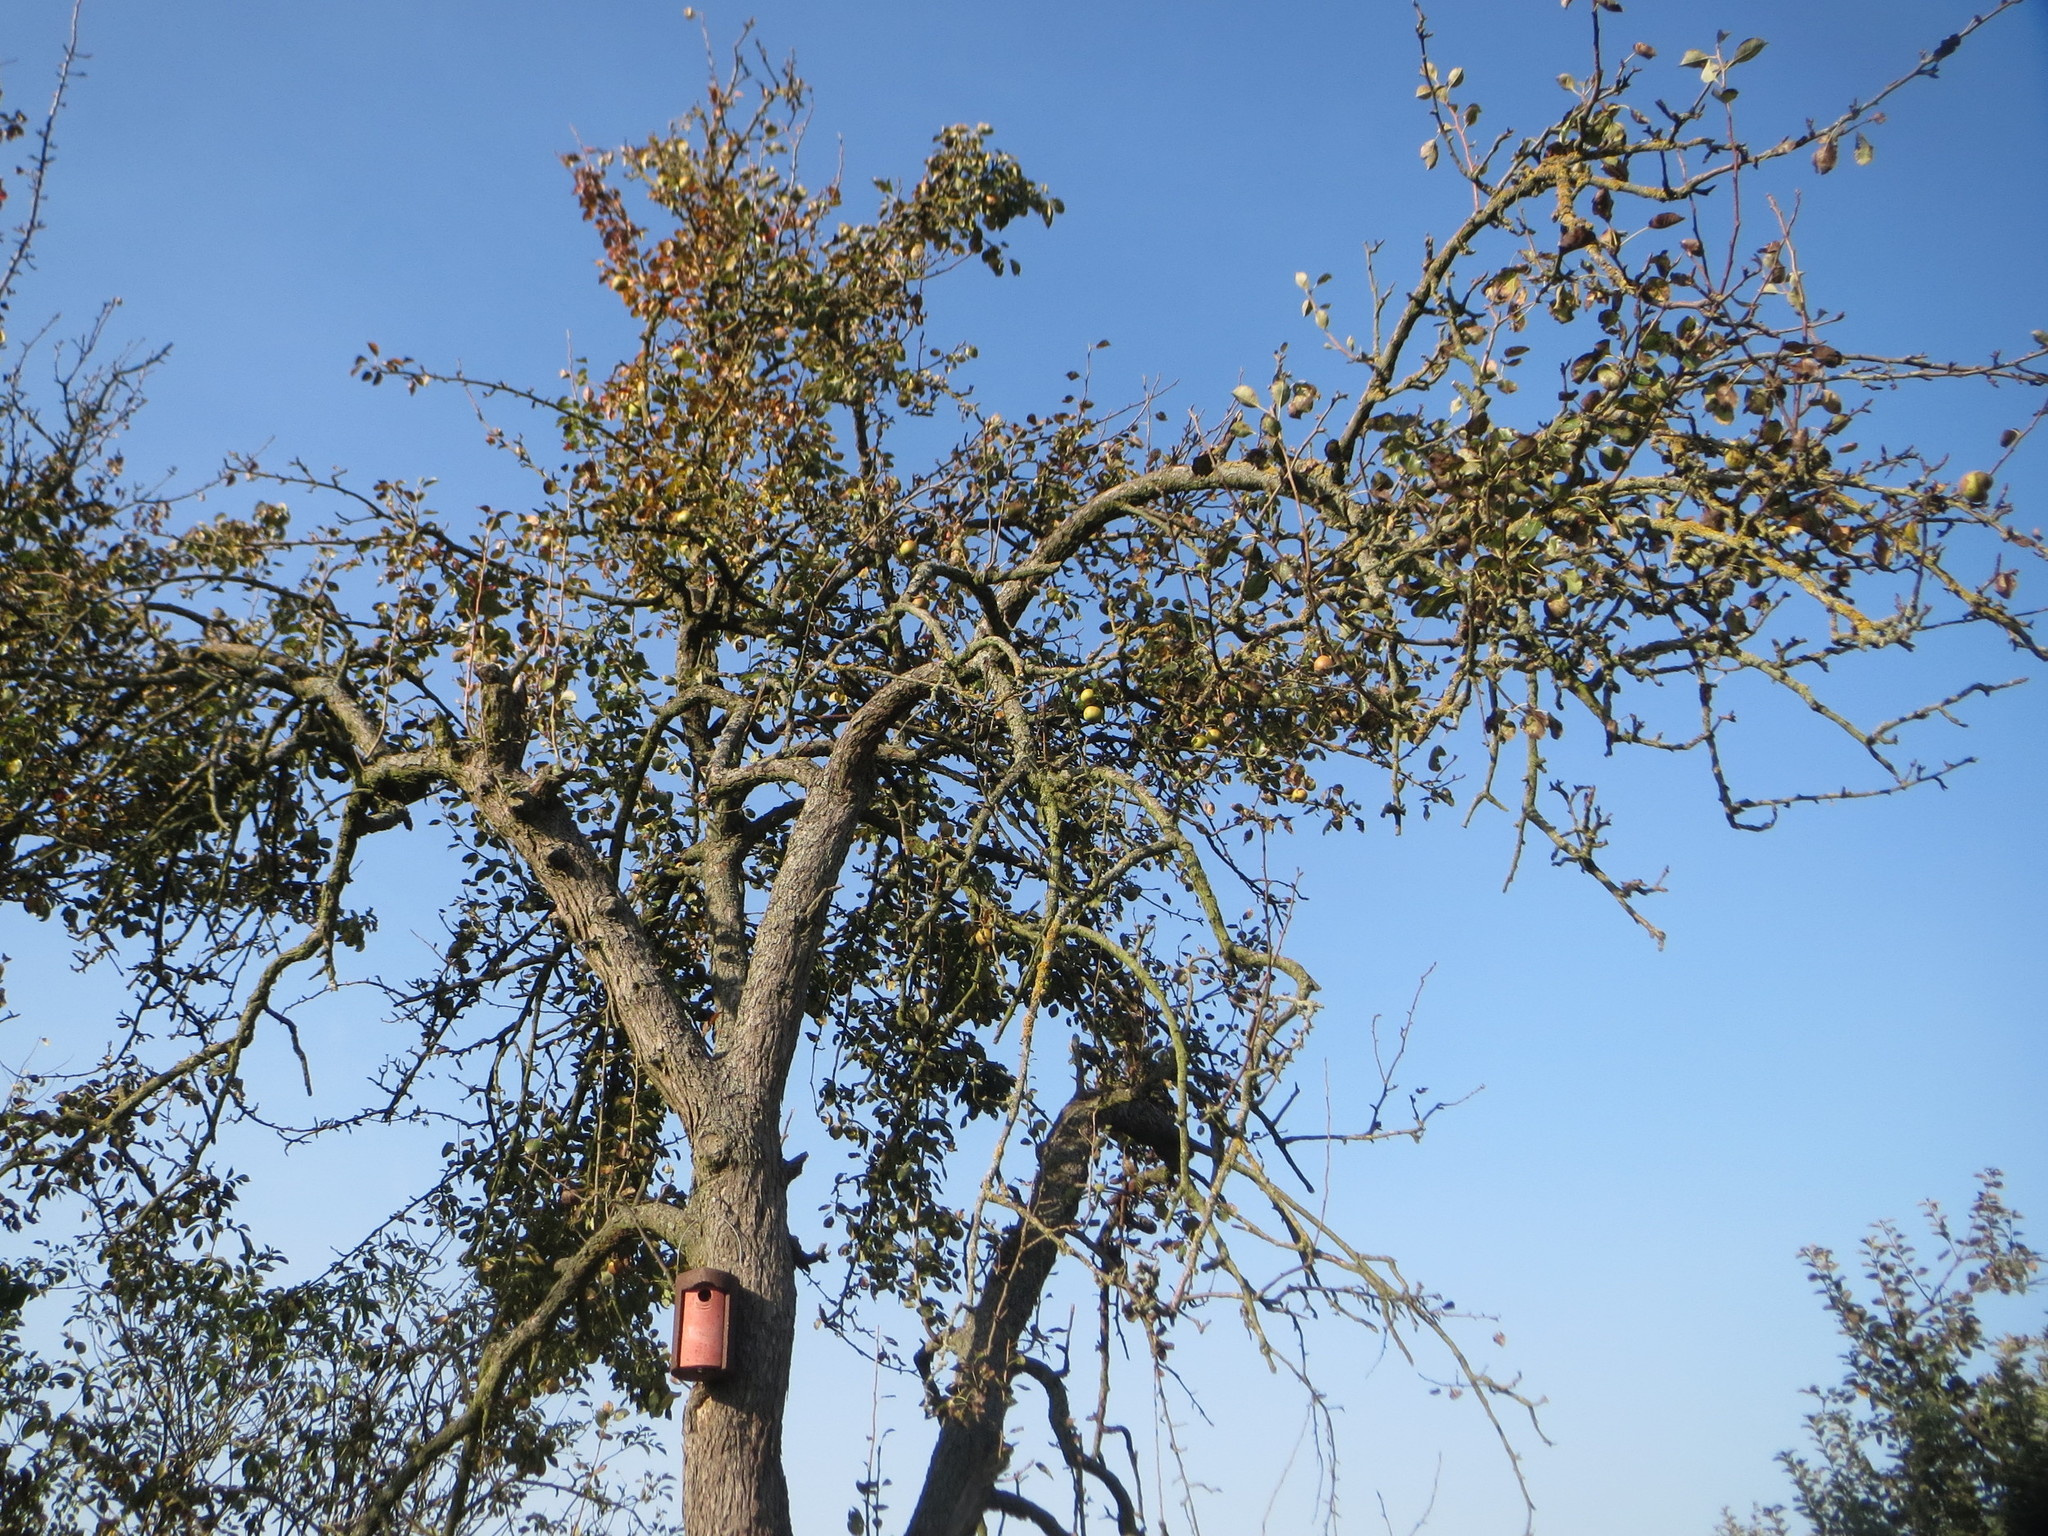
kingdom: Plantae
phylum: Tracheophyta
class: Magnoliopsida
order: Rosales
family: Rosaceae
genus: Malus
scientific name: Malus domestica
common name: Apple
